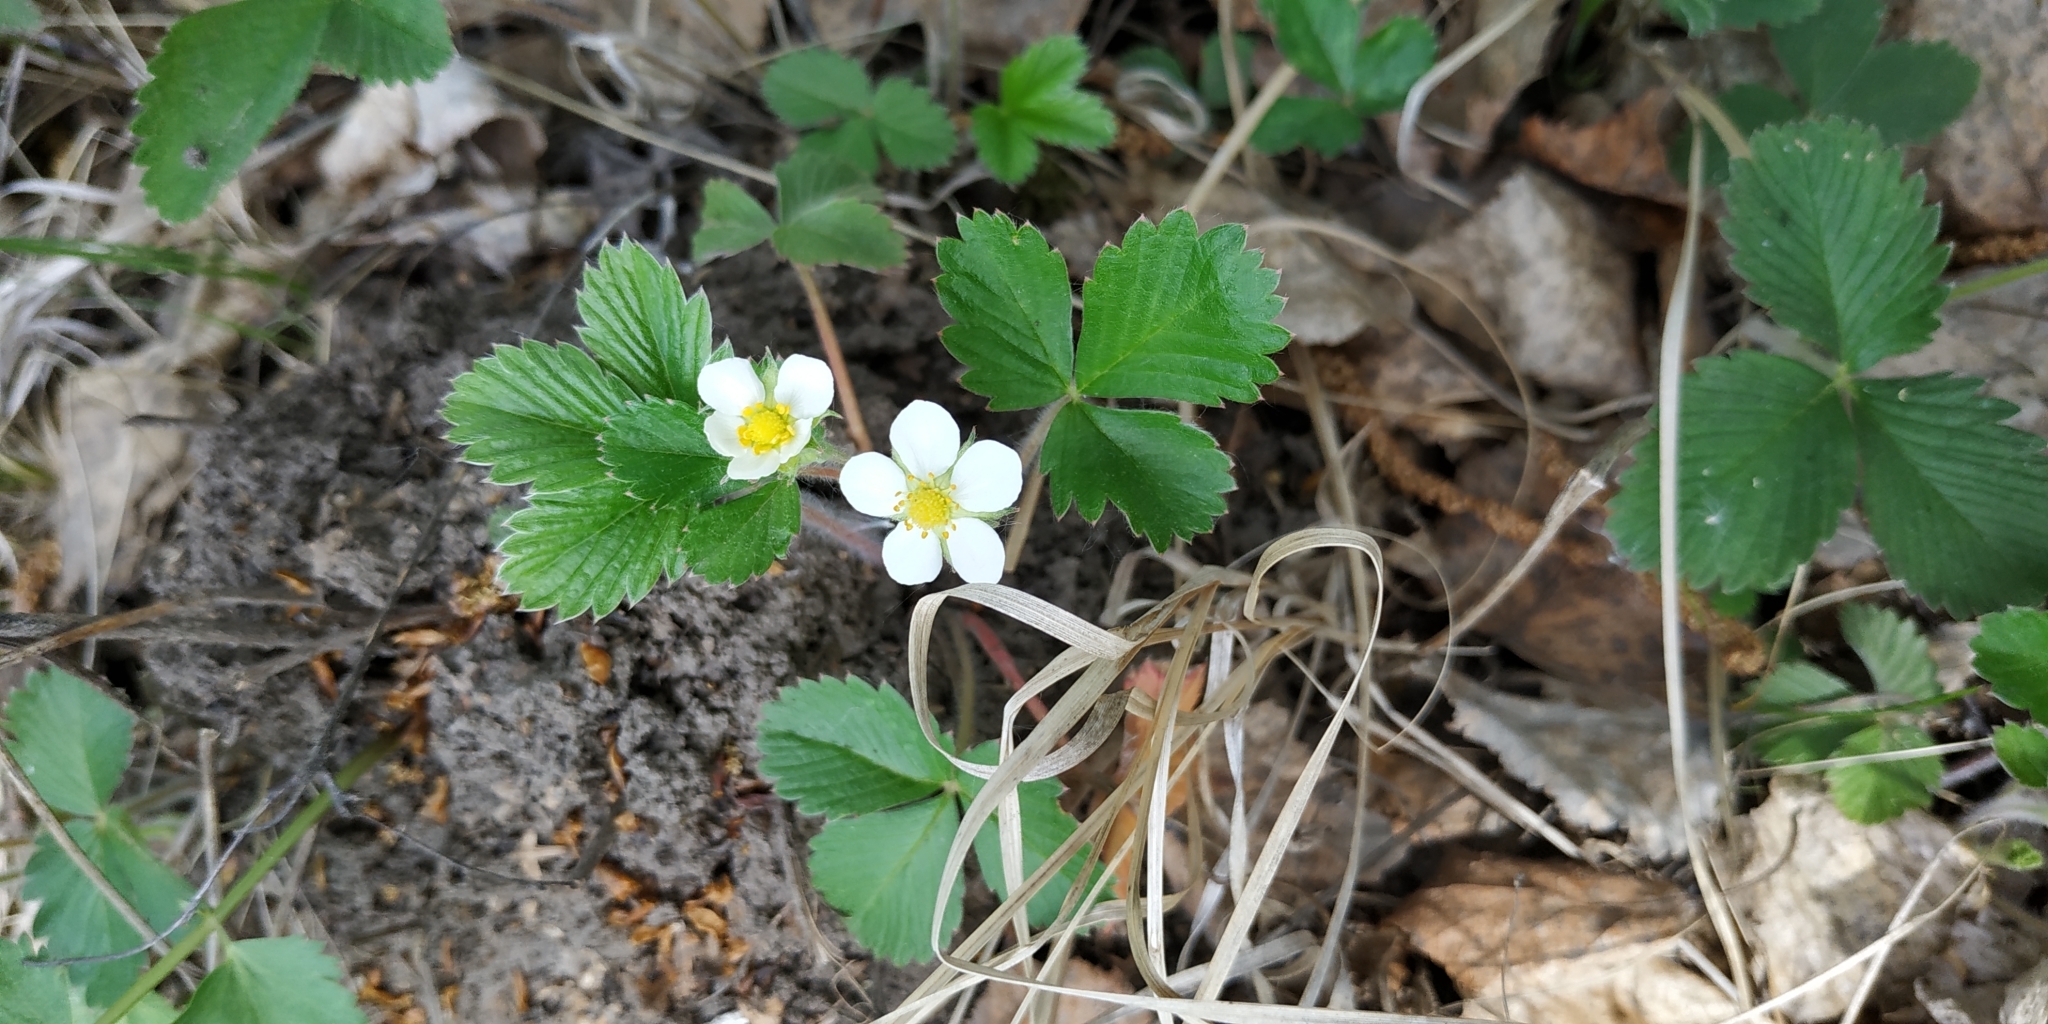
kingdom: Plantae
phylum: Tracheophyta
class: Magnoliopsida
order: Rosales
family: Rosaceae
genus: Fragaria
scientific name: Fragaria vesca
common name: Wild strawberry
